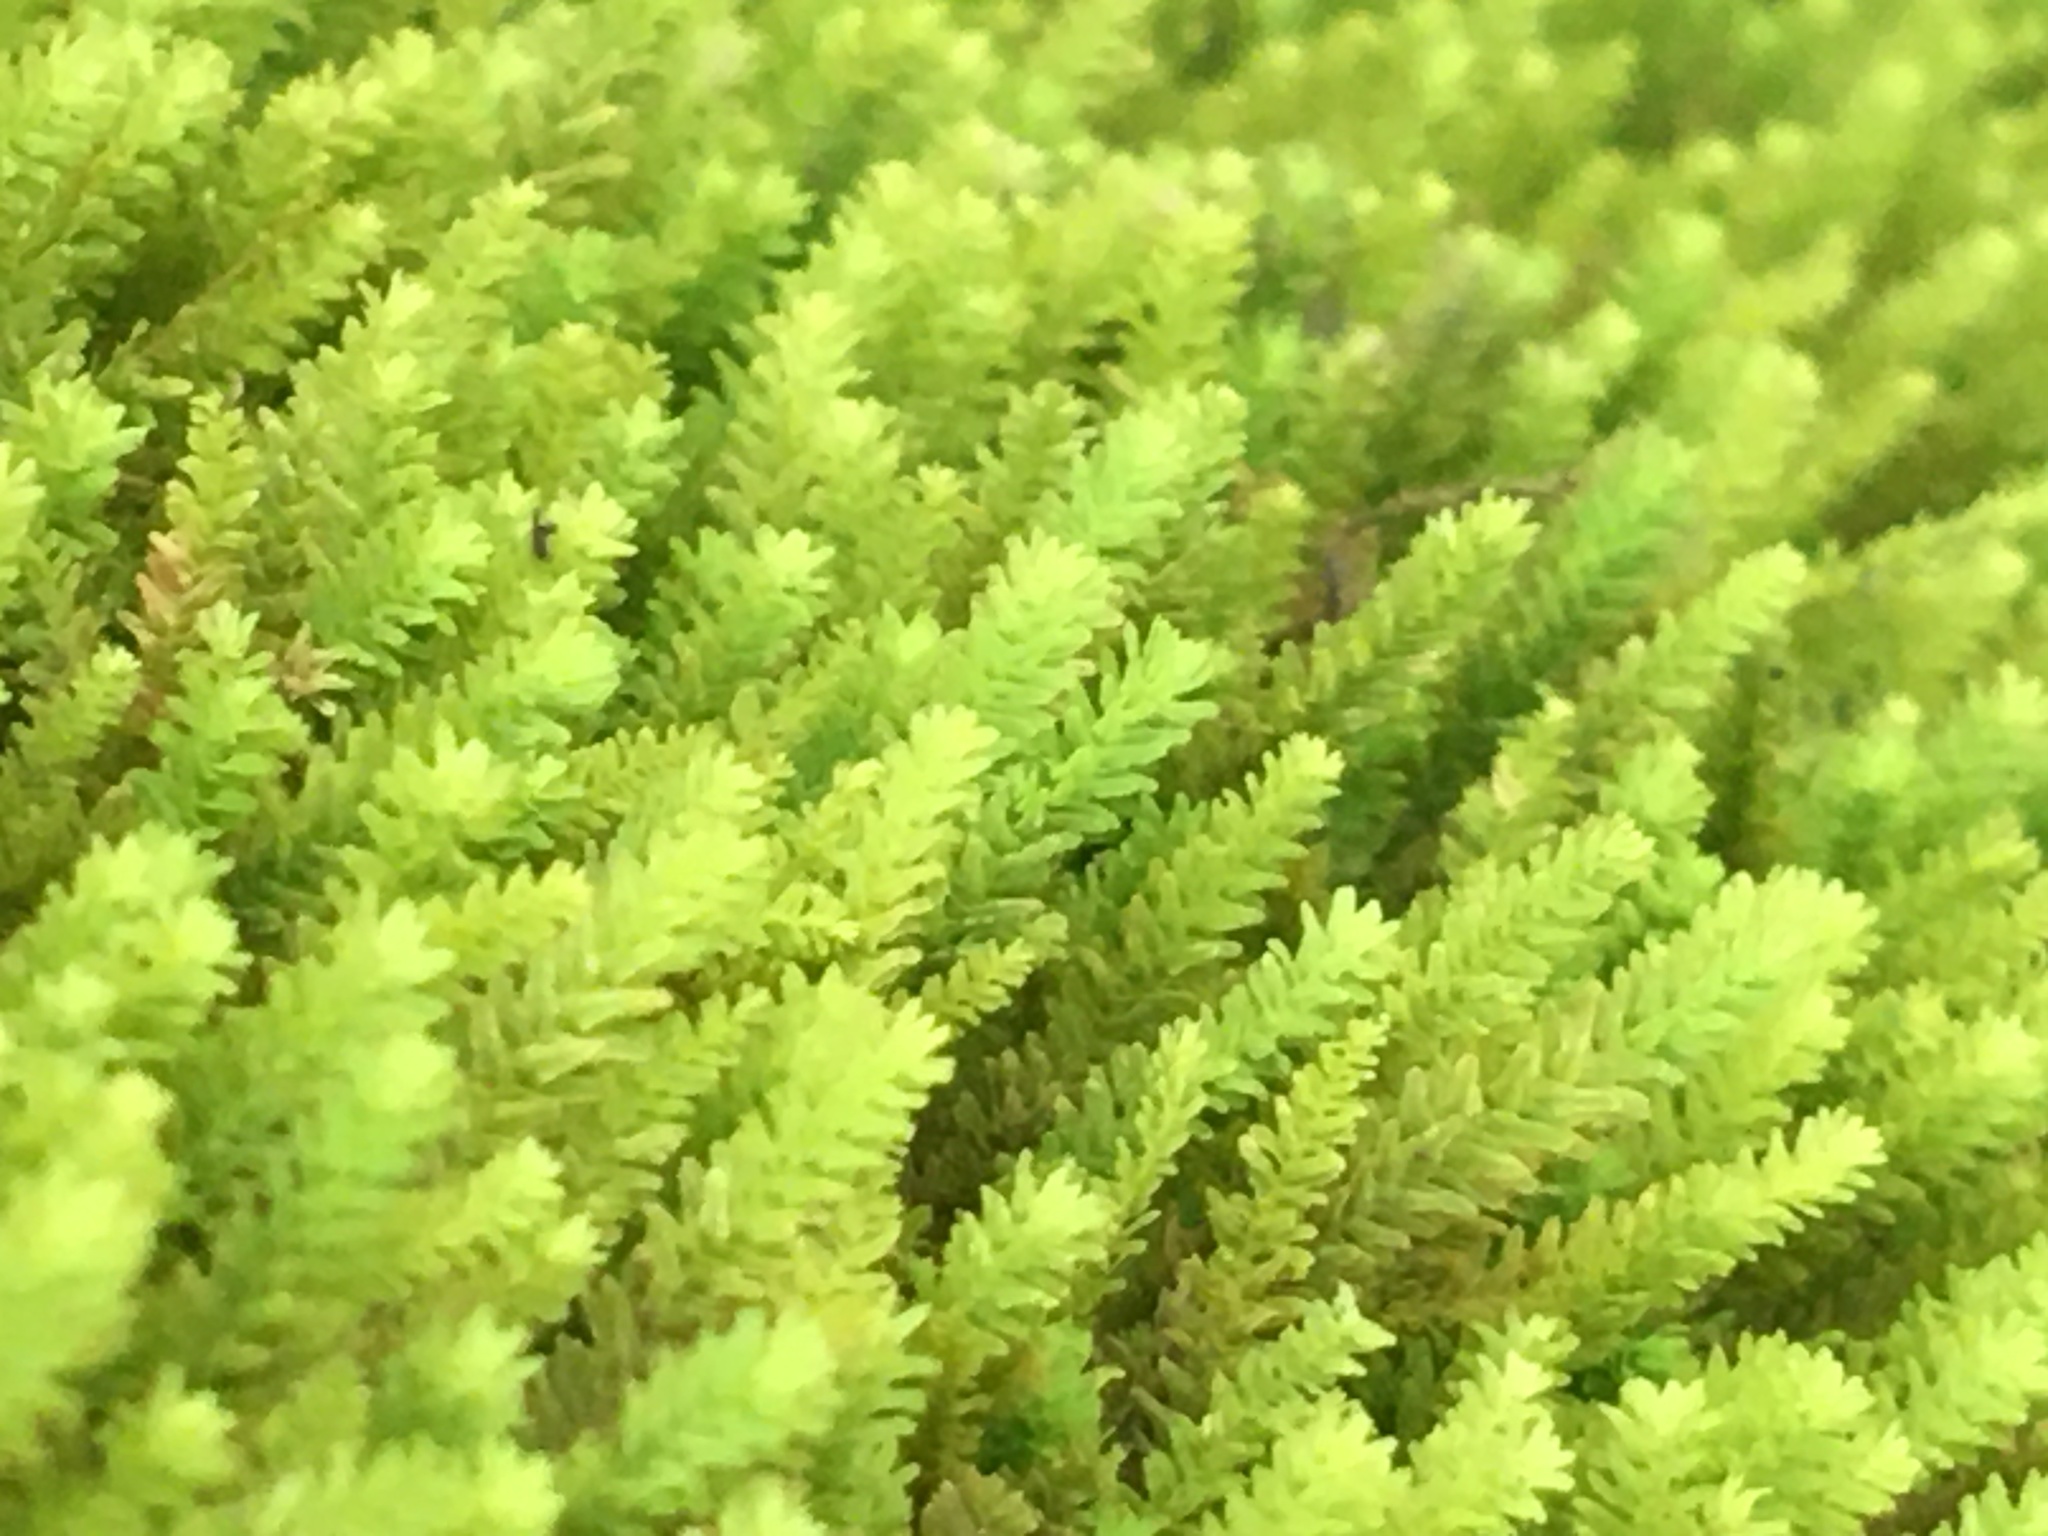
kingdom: Plantae
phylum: Bryophyta
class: Bryopsida
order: Hypnales
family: Anomodontaceae
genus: Anomodon
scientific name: Anomodon minor
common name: Blunt-leaved anomodon
